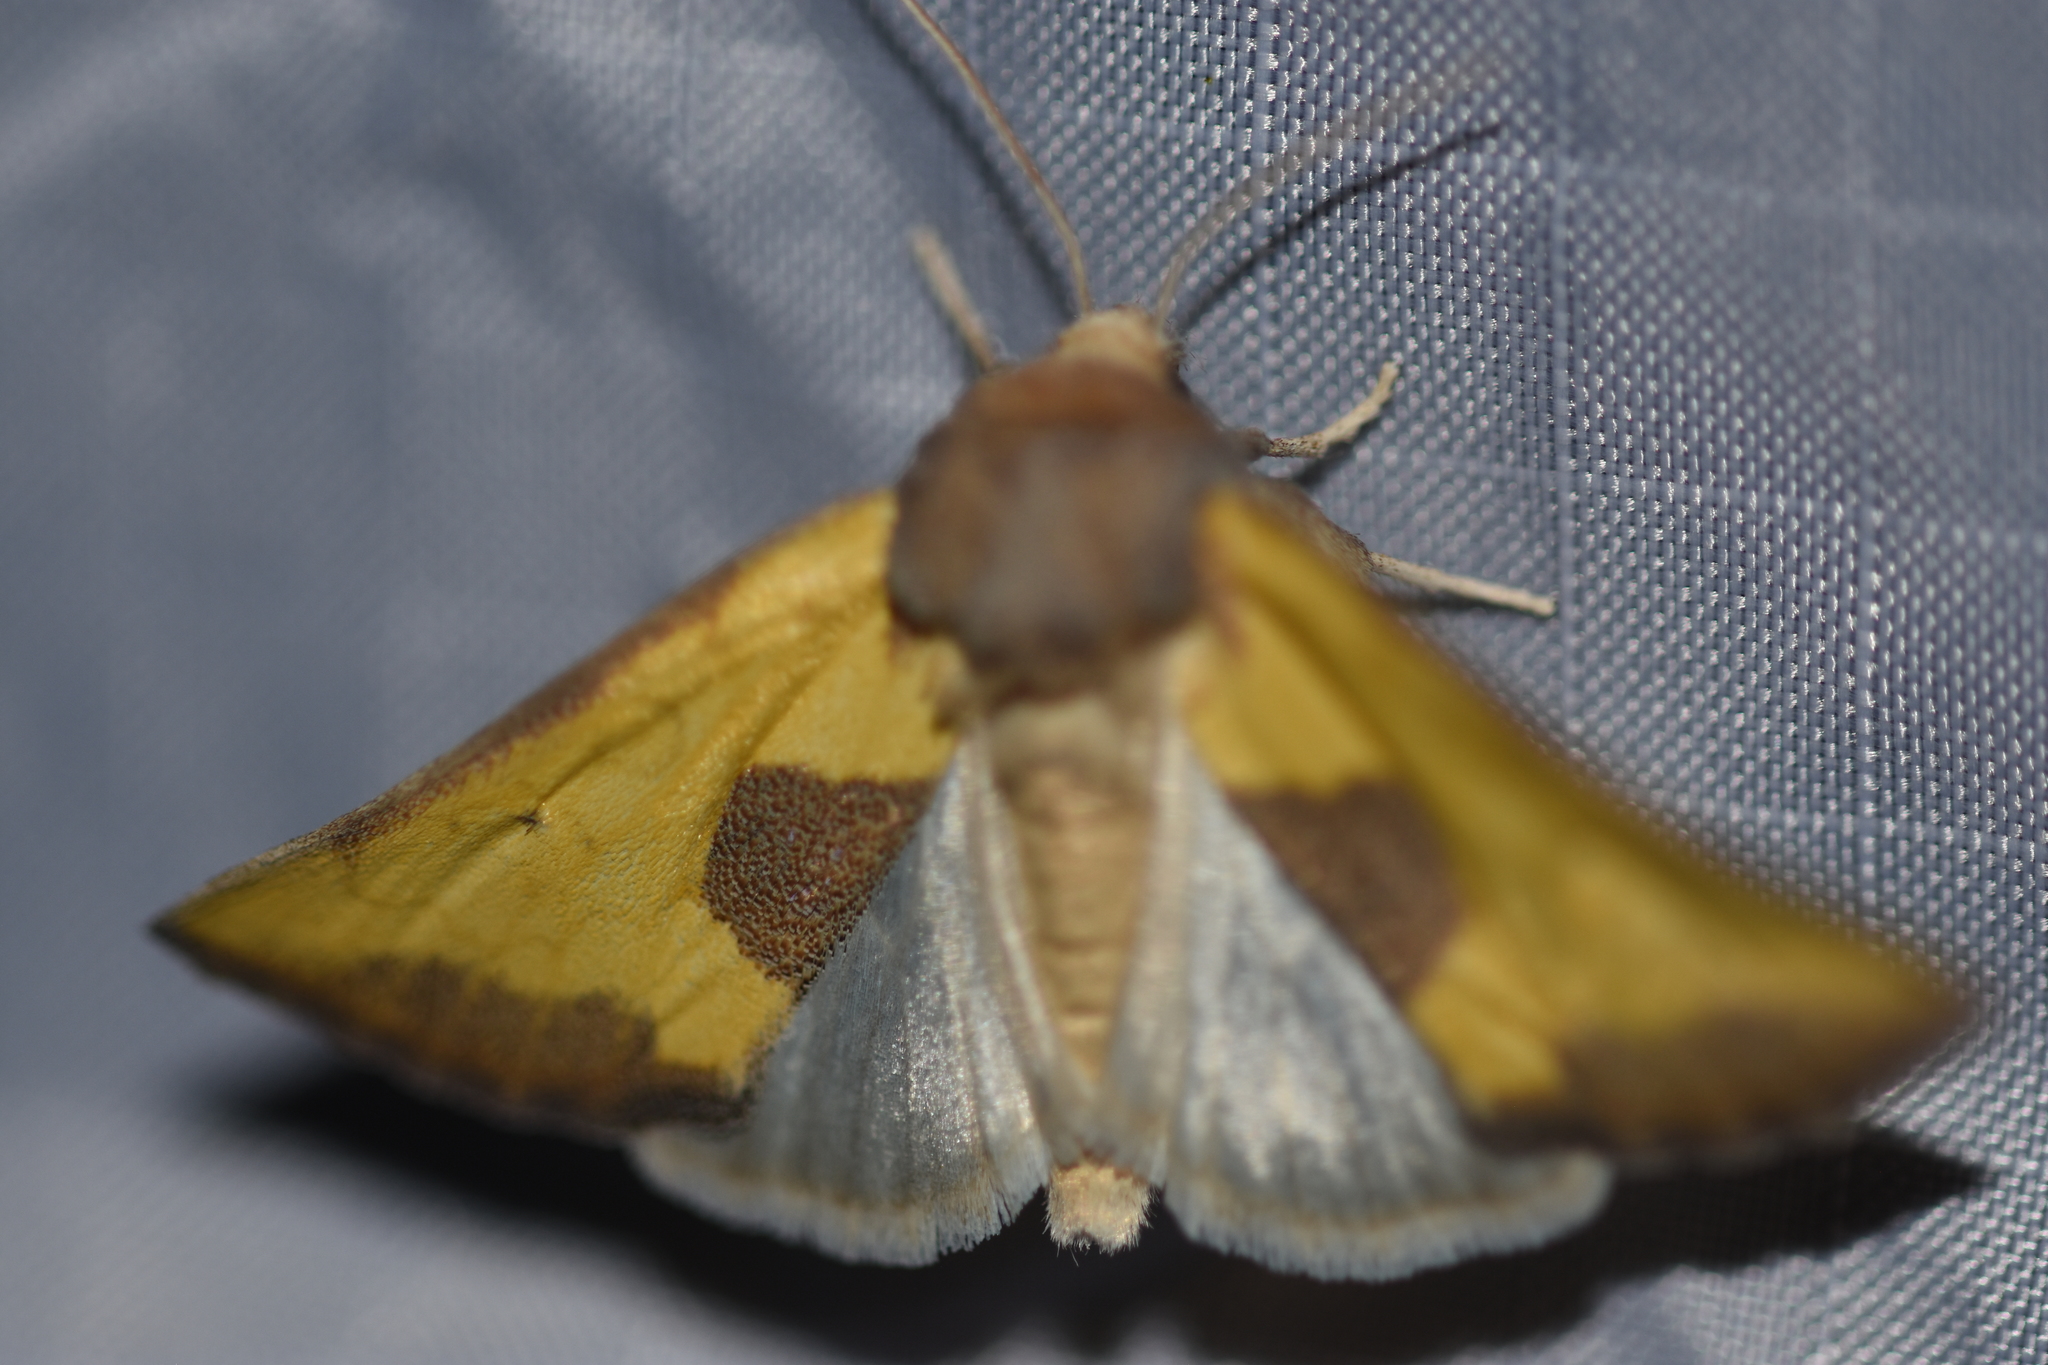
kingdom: Animalia
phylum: Arthropoda
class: Insecta
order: Lepidoptera
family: Noctuidae
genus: Stiria
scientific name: Stiria dyari
